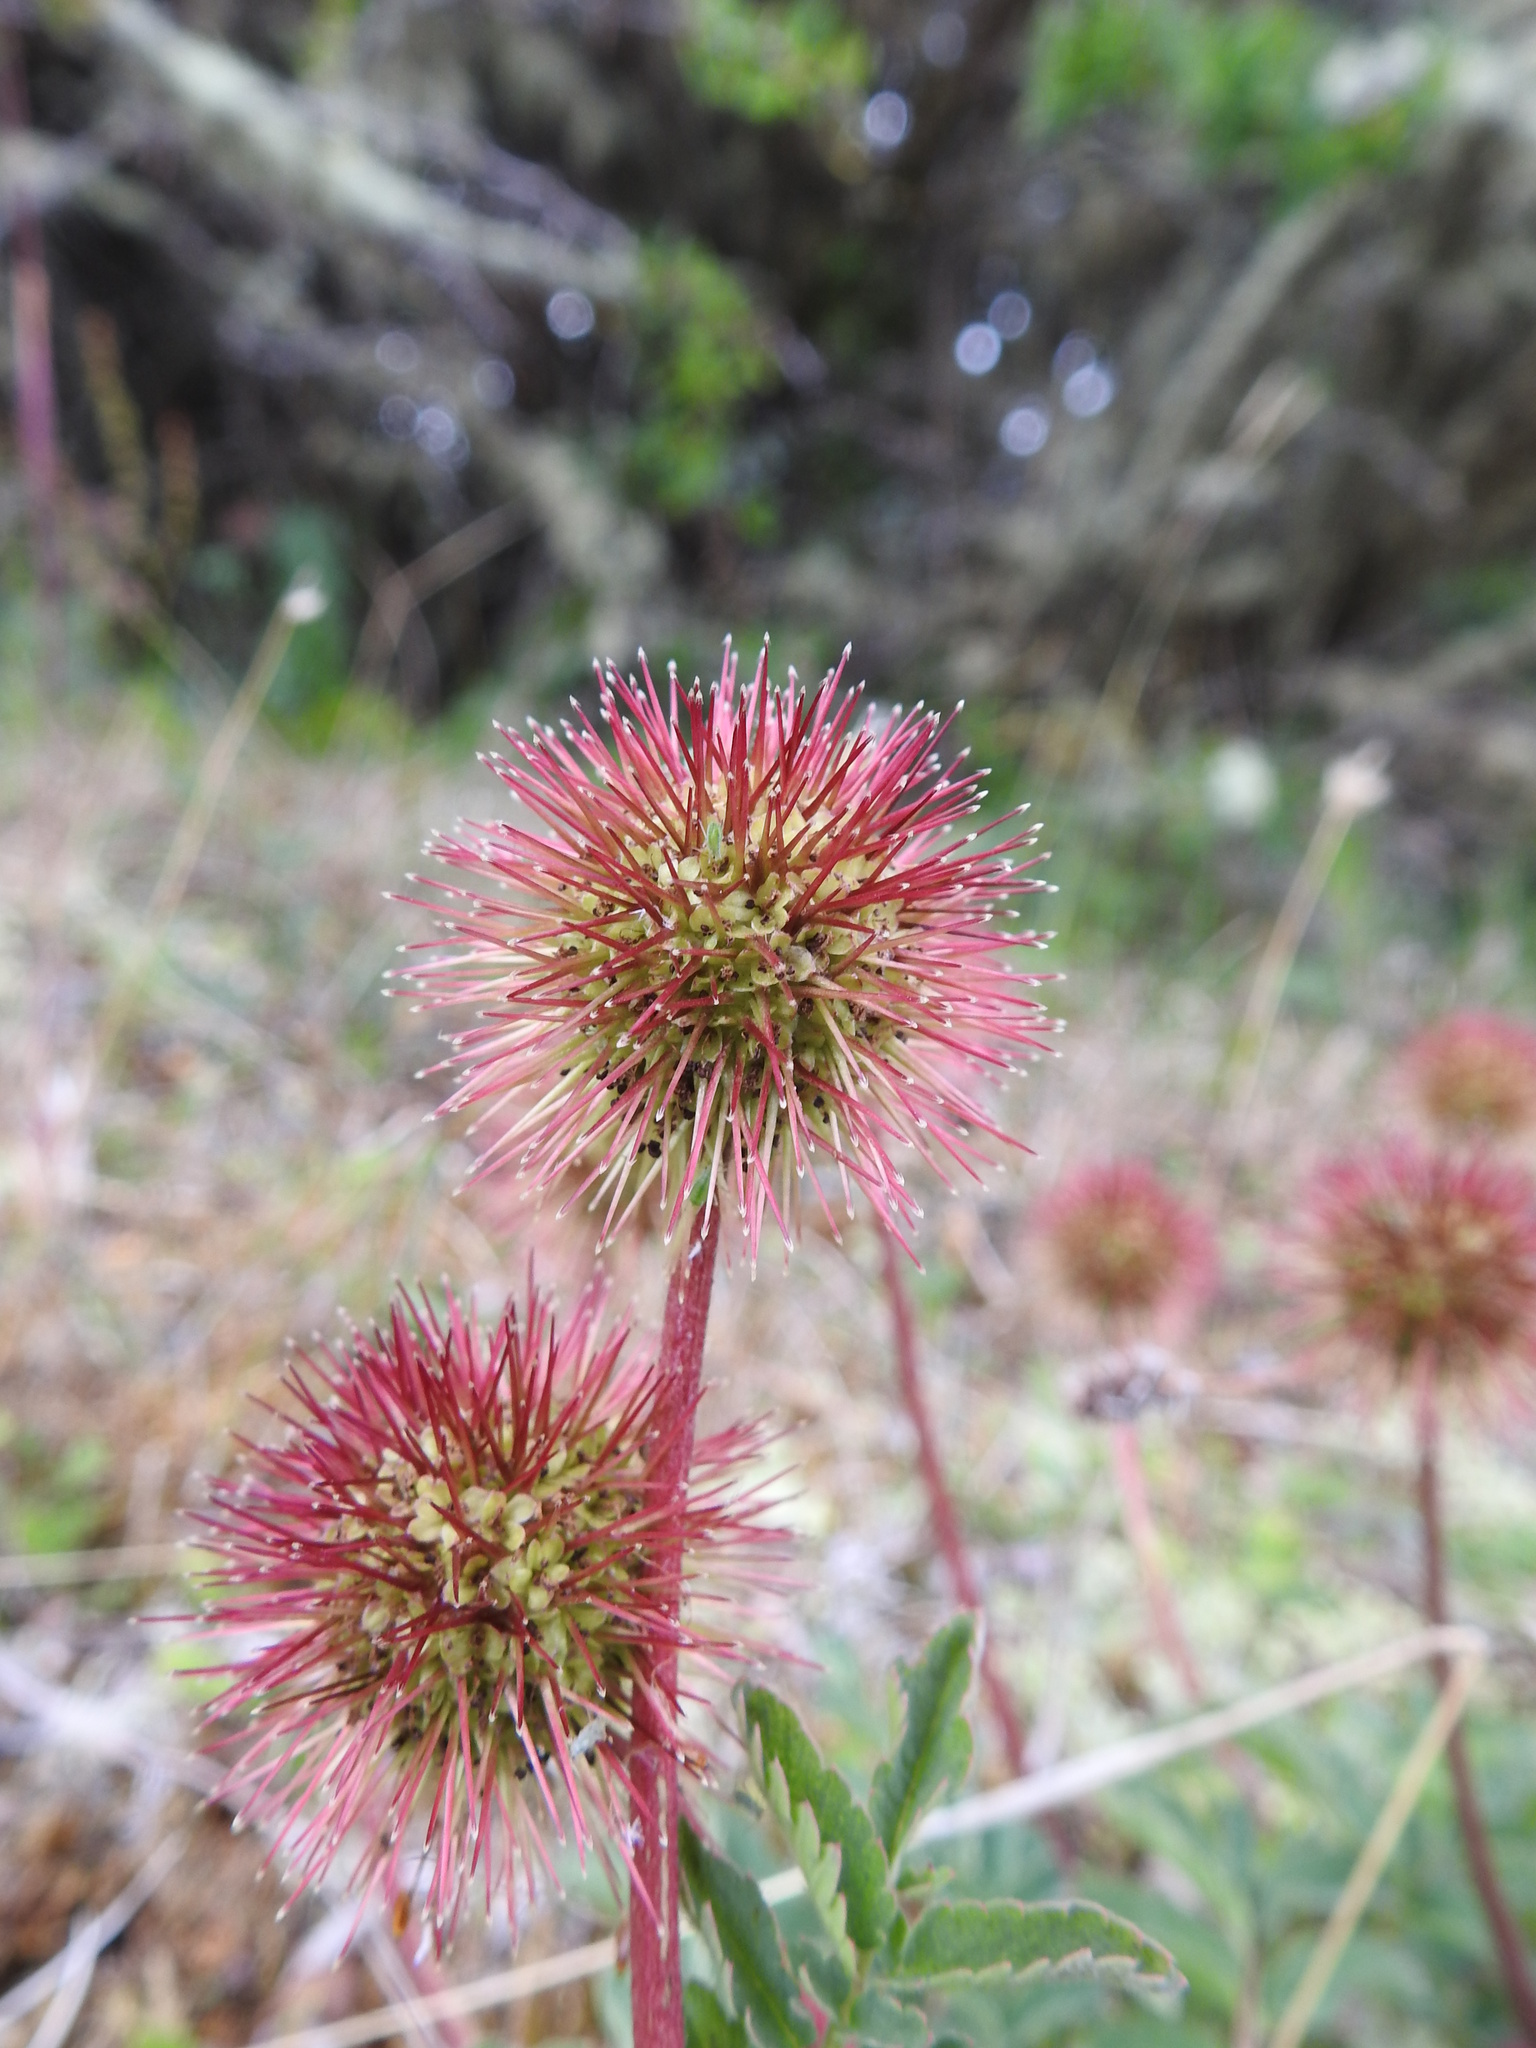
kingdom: Plantae
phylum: Tracheophyta
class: Magnoliopsida
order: Rosales
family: Rosaceae
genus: Acaena
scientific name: Acaena magellanica
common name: New zealand burr
